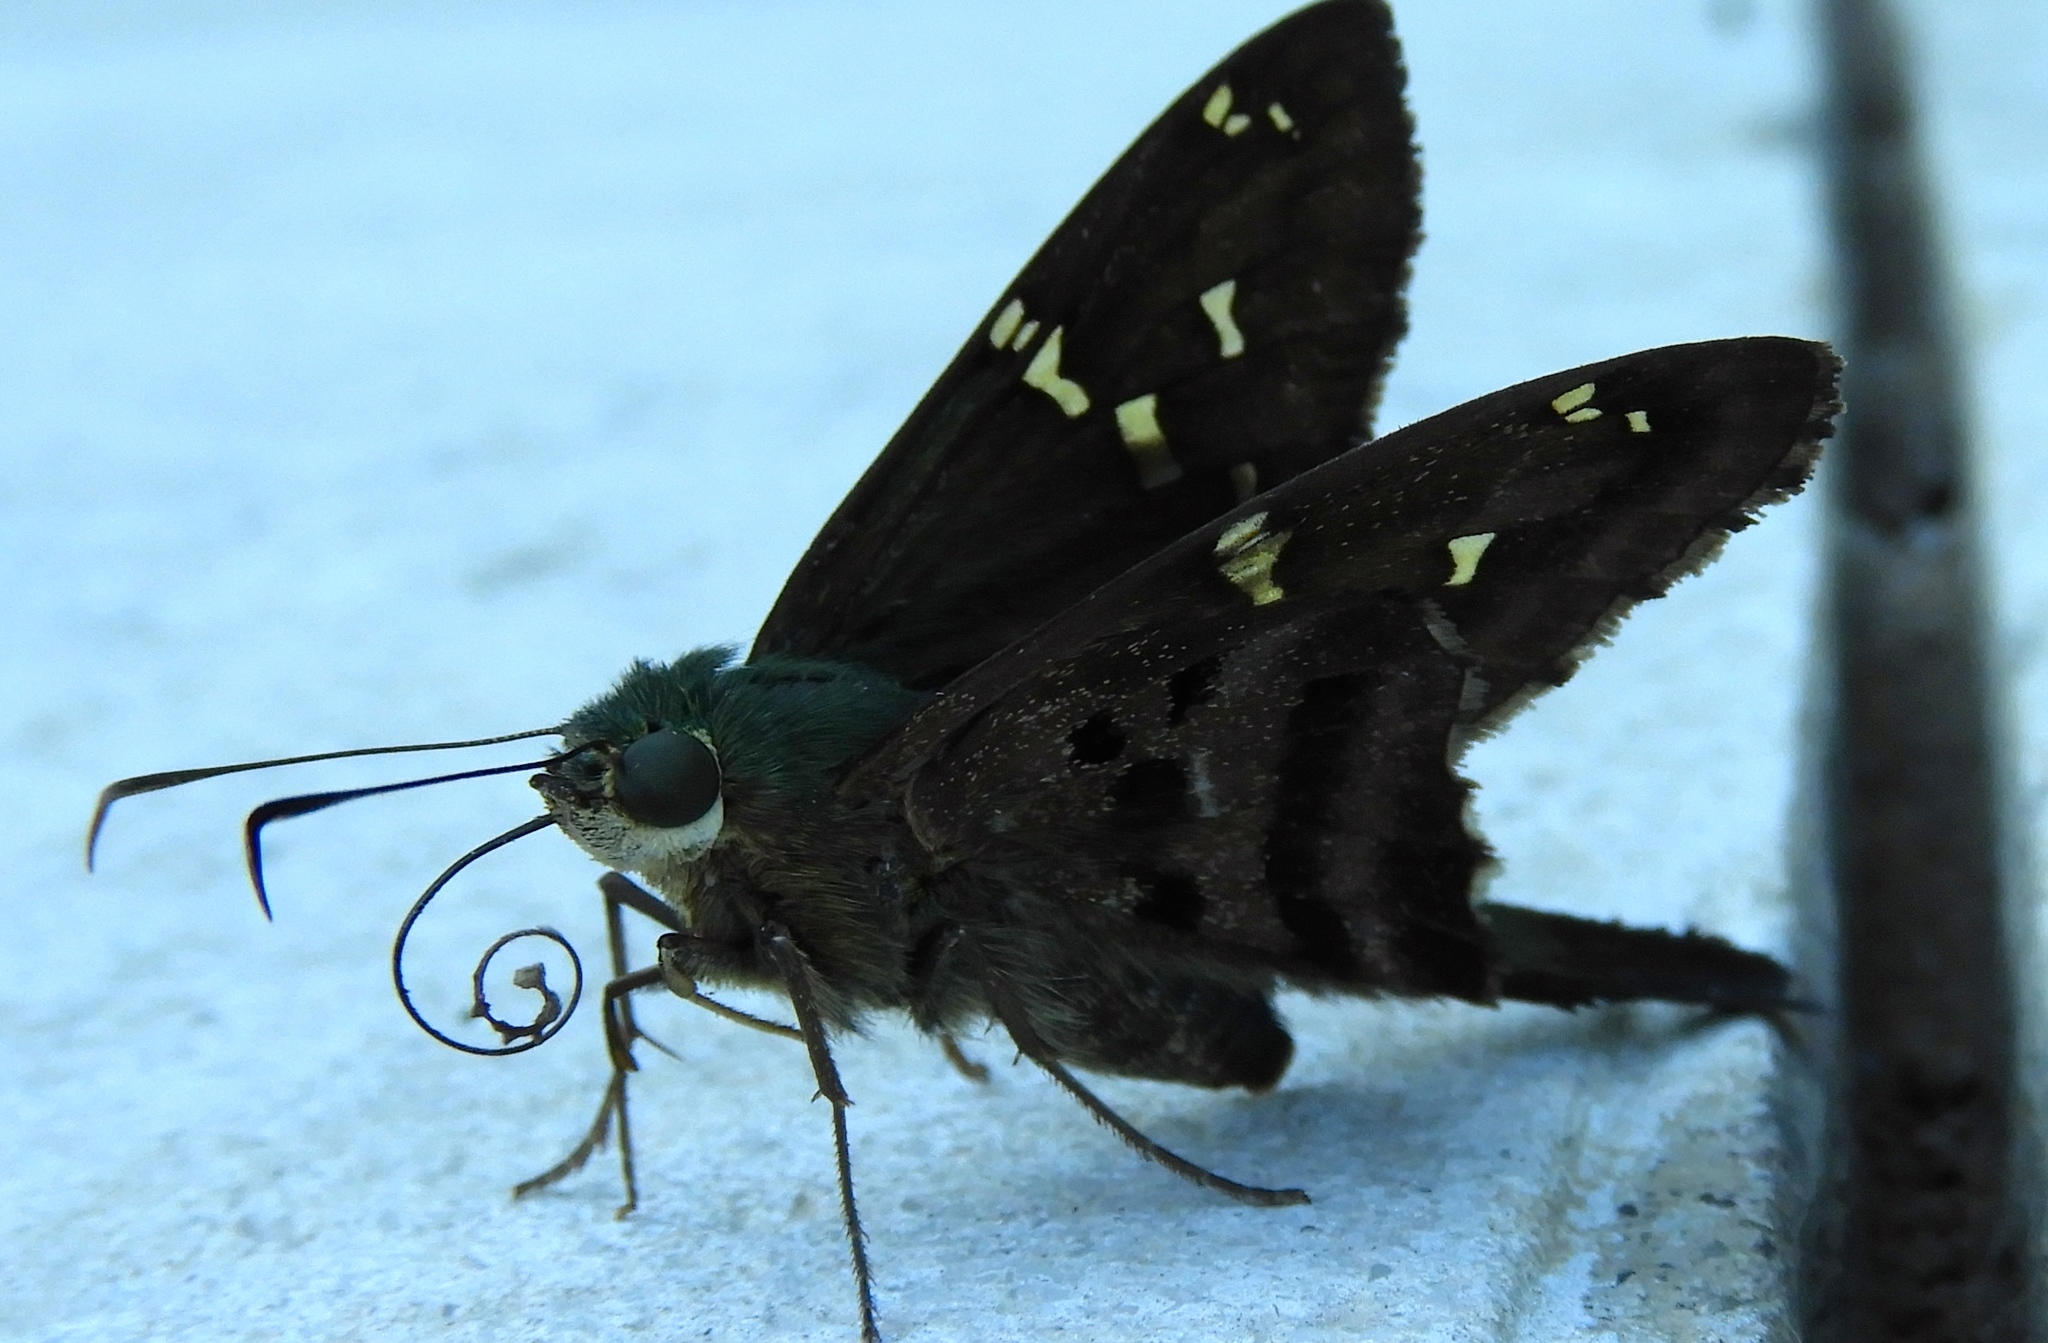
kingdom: Animalia
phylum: Arthropoda
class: Insecta
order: Lepidoptera
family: Hesperiidae
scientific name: Hesperiidae
